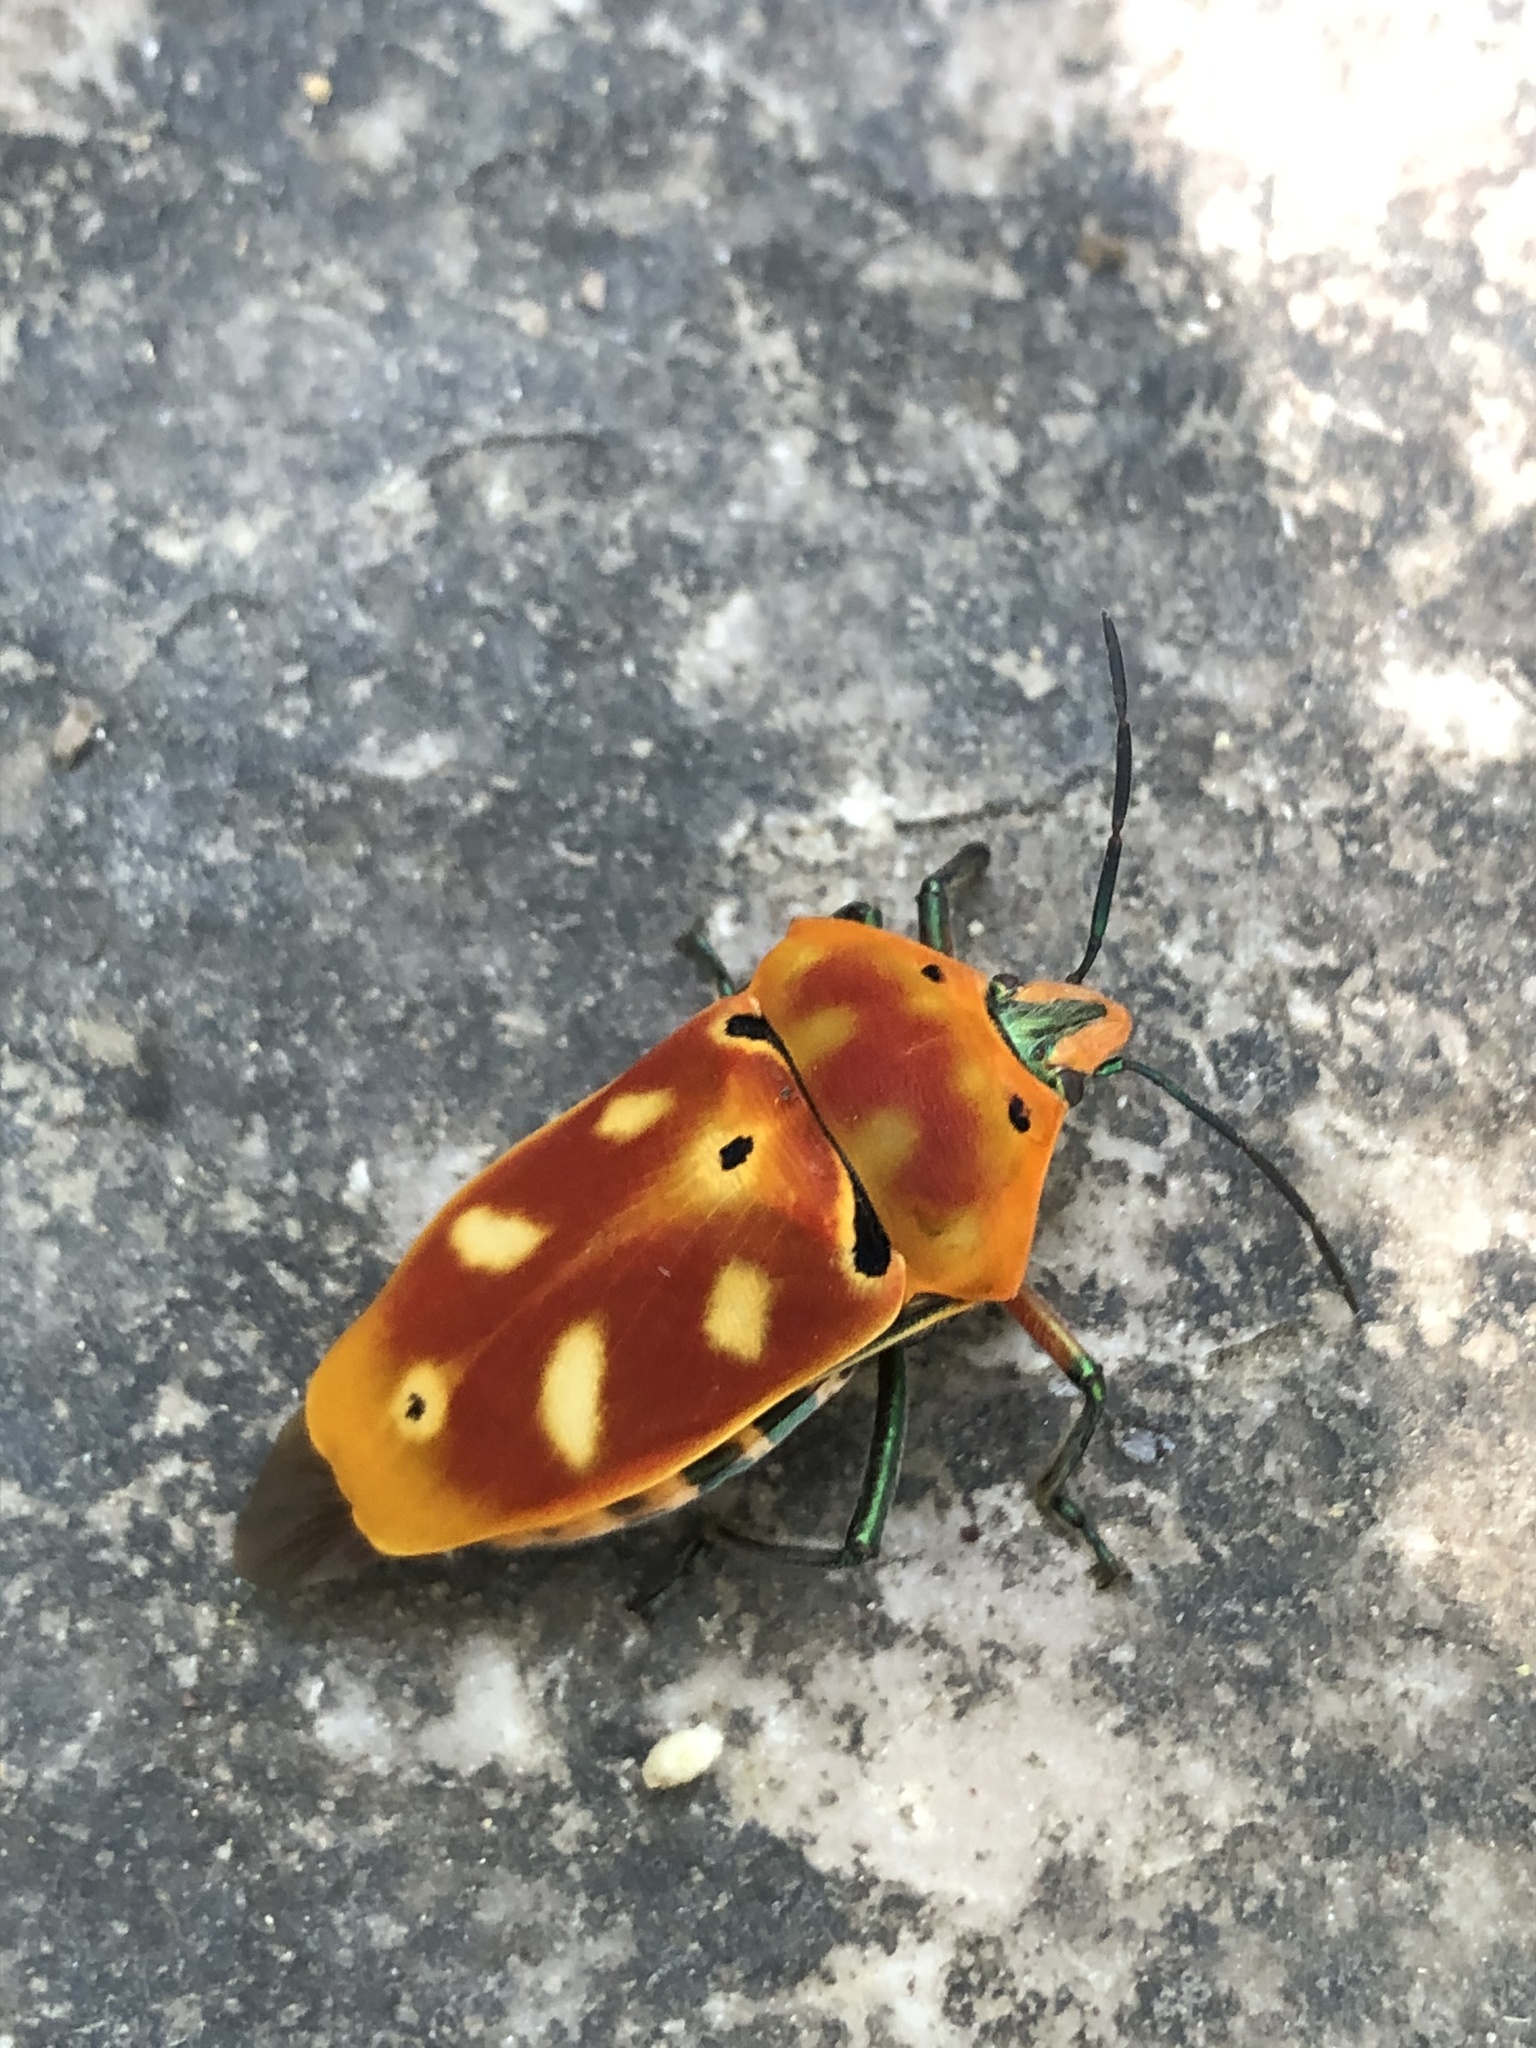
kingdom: Animalia
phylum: Arthropoda
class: Insecta
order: Hemiptera
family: Scutelleridae
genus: Cantao
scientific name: Cantao ocellatus
